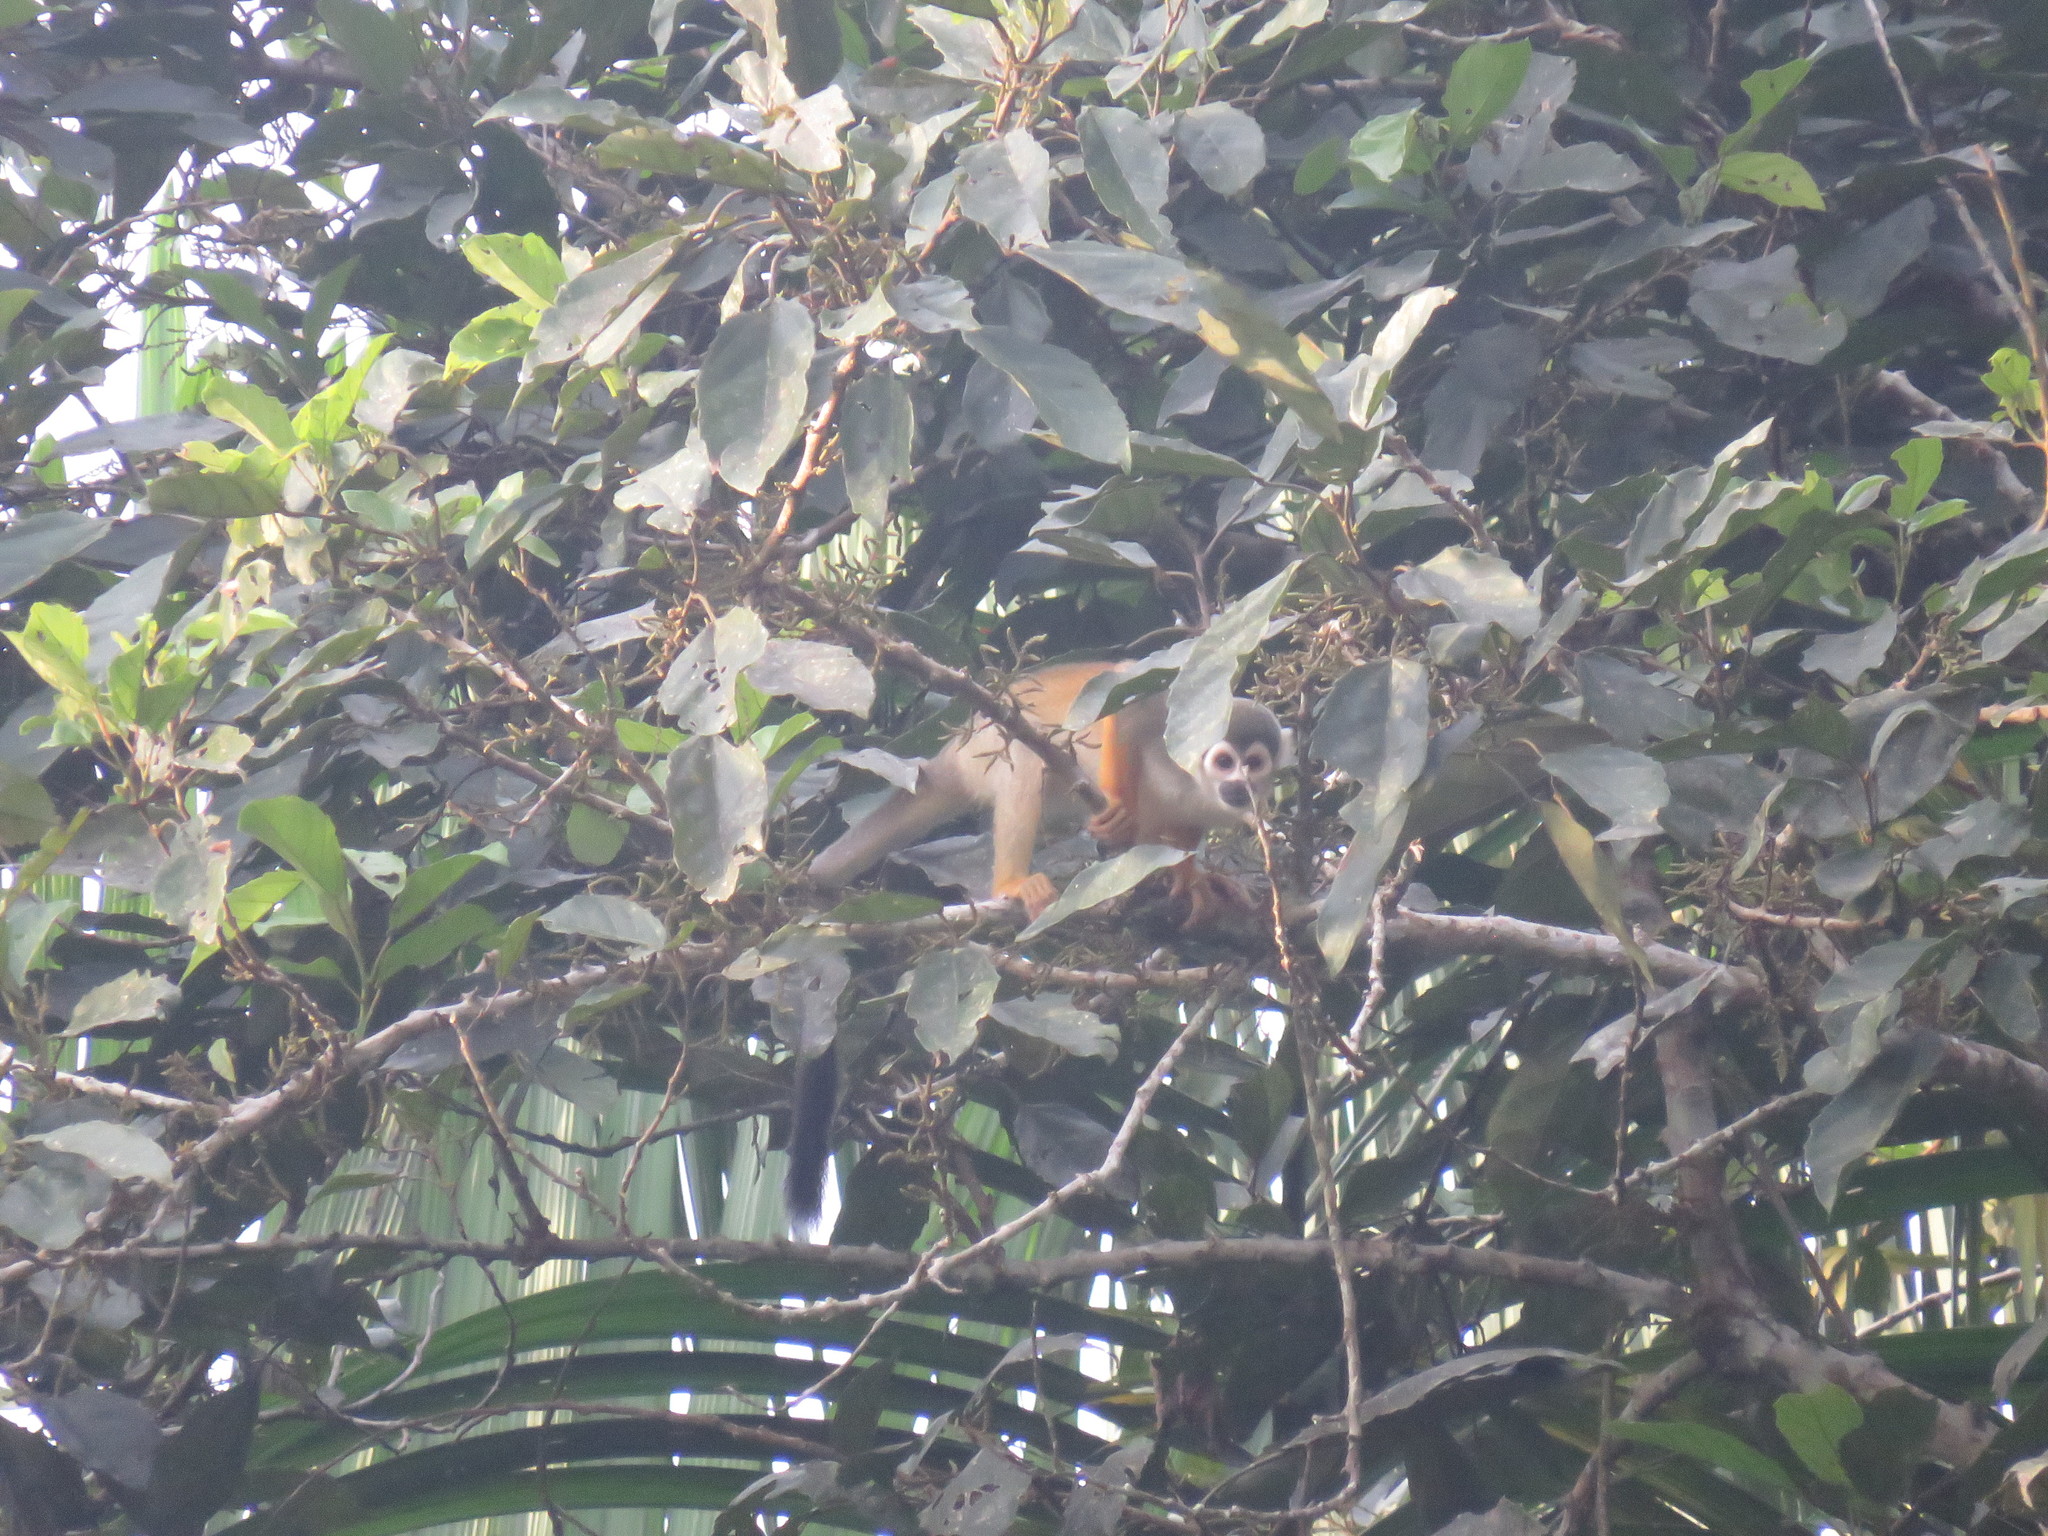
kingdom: Animalia
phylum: Chordata
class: Mammalia
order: Primates
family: Cebidae
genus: Saimiri
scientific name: Saimiri cassiquiarensis
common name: Humboldt’s squirrel monkey
